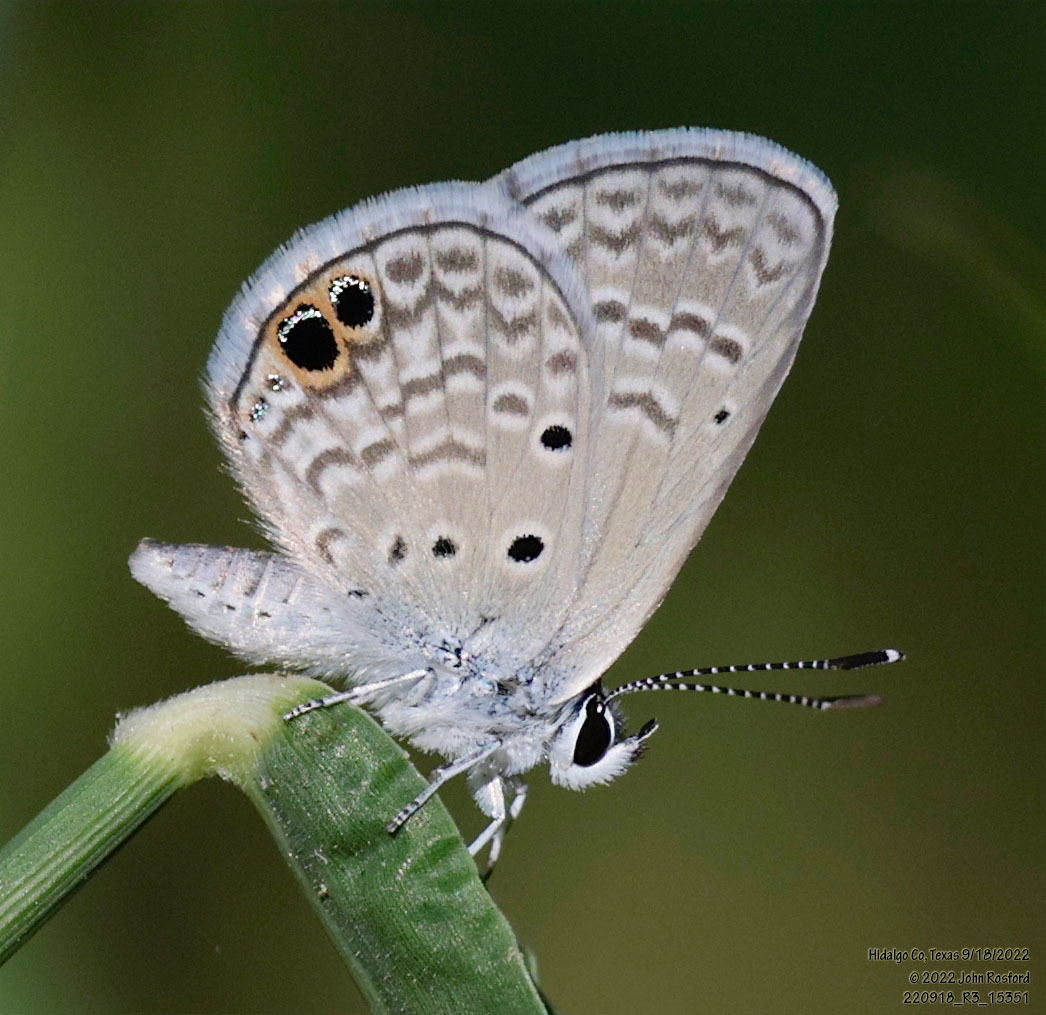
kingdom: Animalia
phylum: Arthropoda
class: Insecta
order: Lepidoptera
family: Lycaenidae
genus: Hemiargus
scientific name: Hemiargus ceraunus
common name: Ceraunus blue
